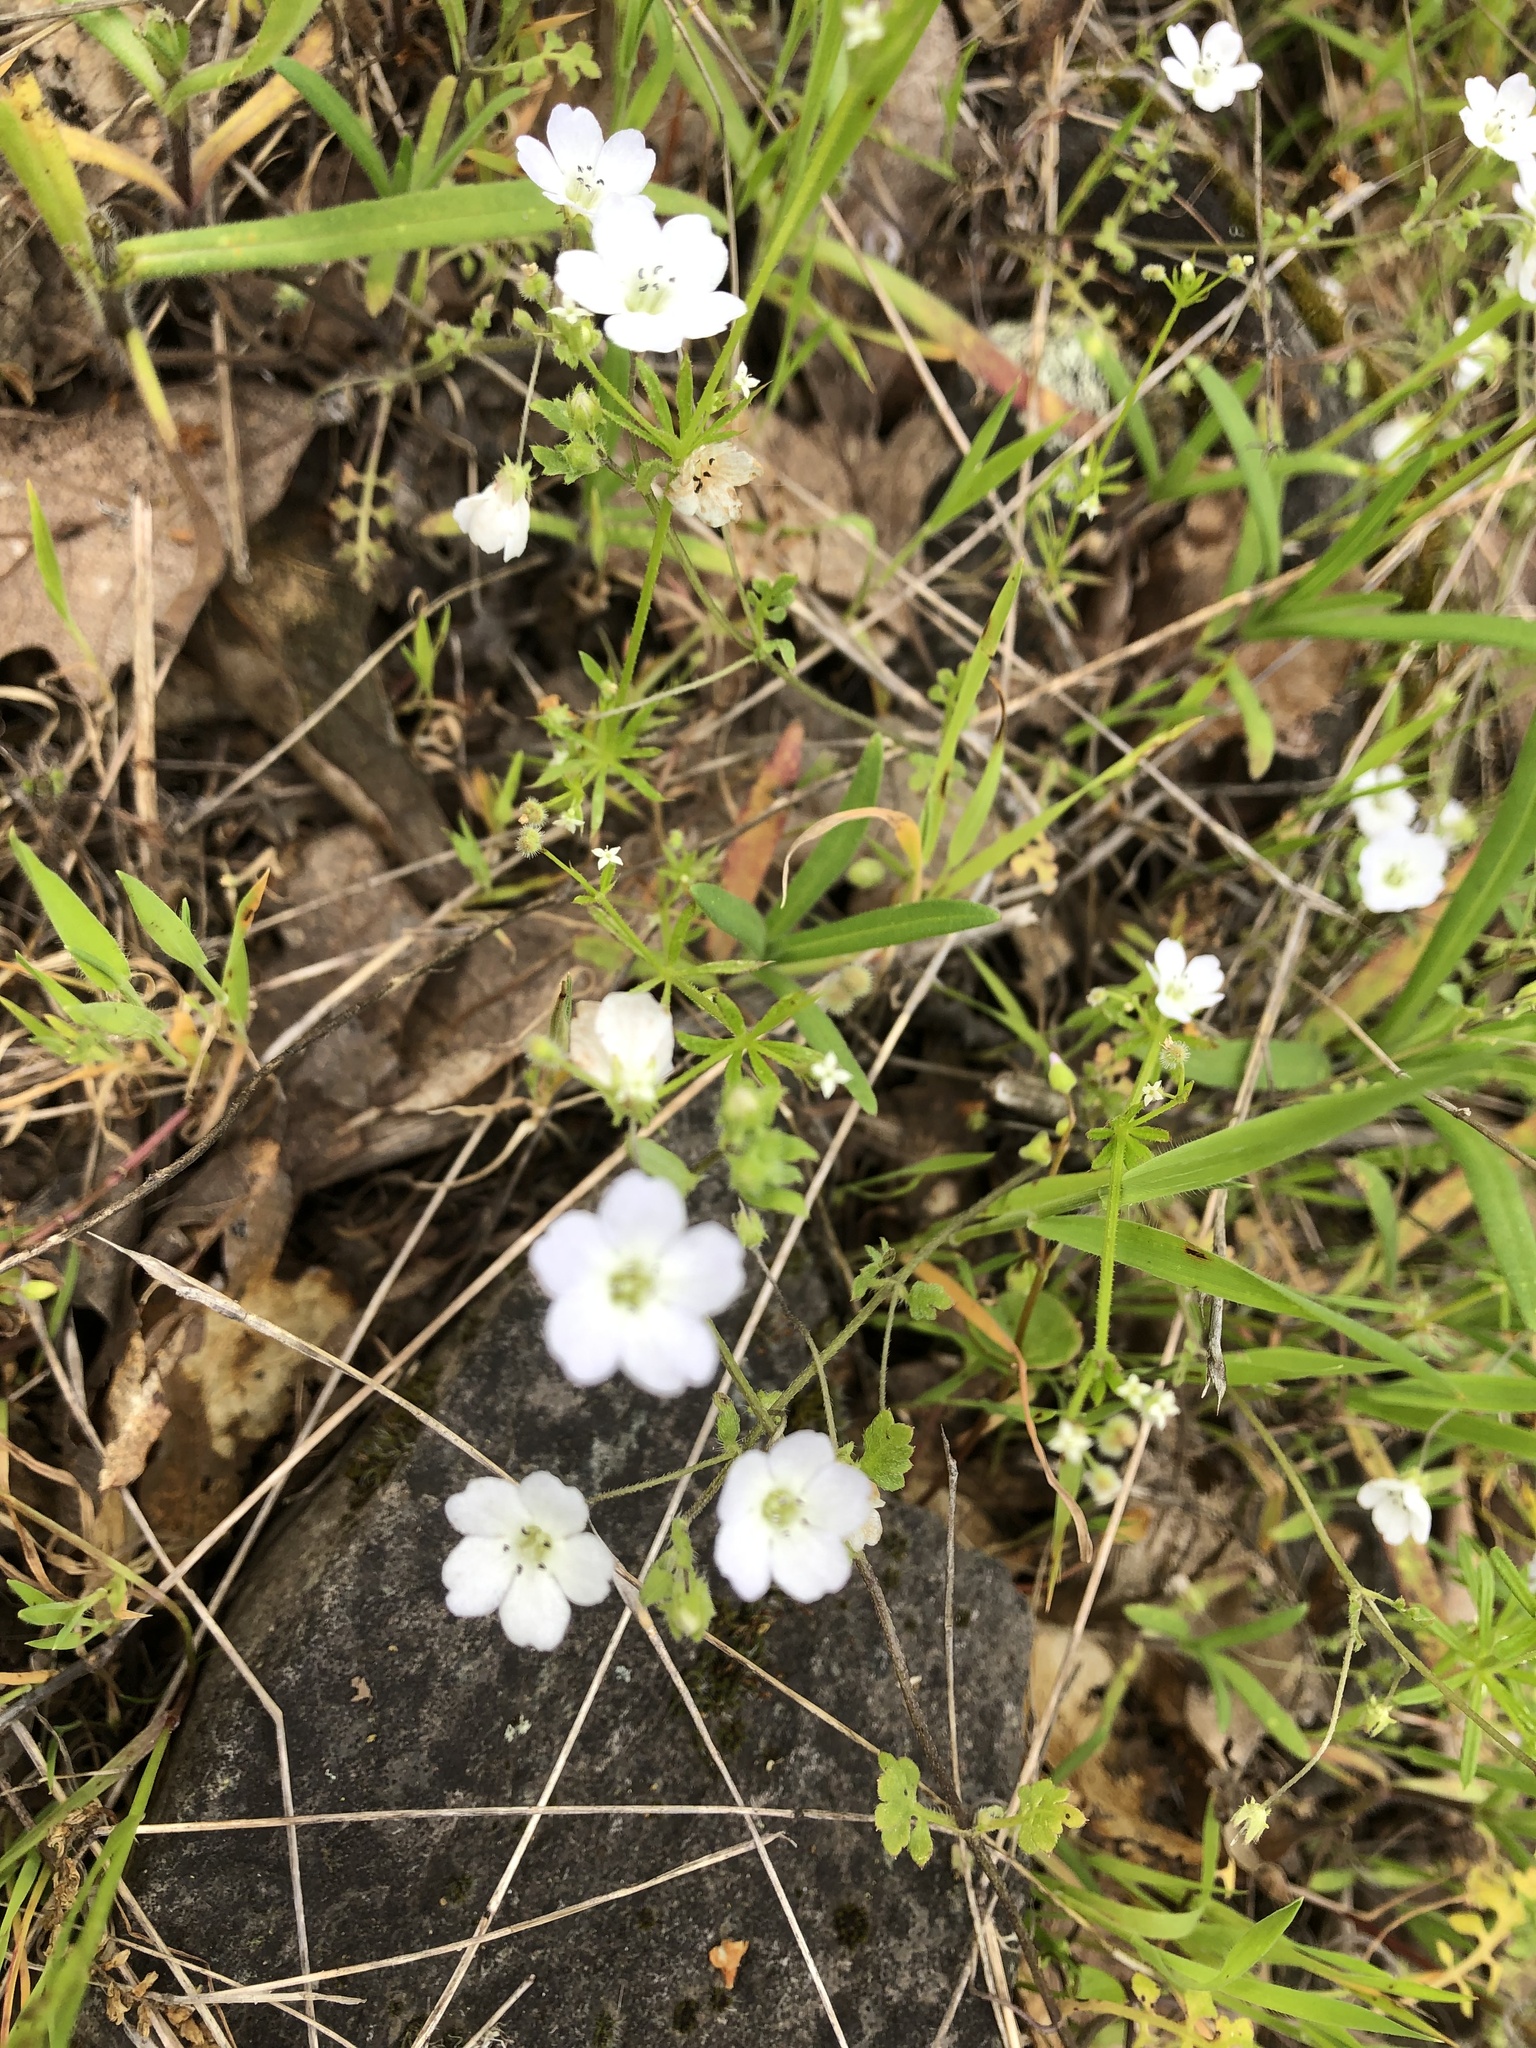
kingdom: Plantae
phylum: Tracheophyta
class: Magnoliopsida
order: Boraginales
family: Hydrophyllaceae
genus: Nemophila
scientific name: Nemophila heterophylla
